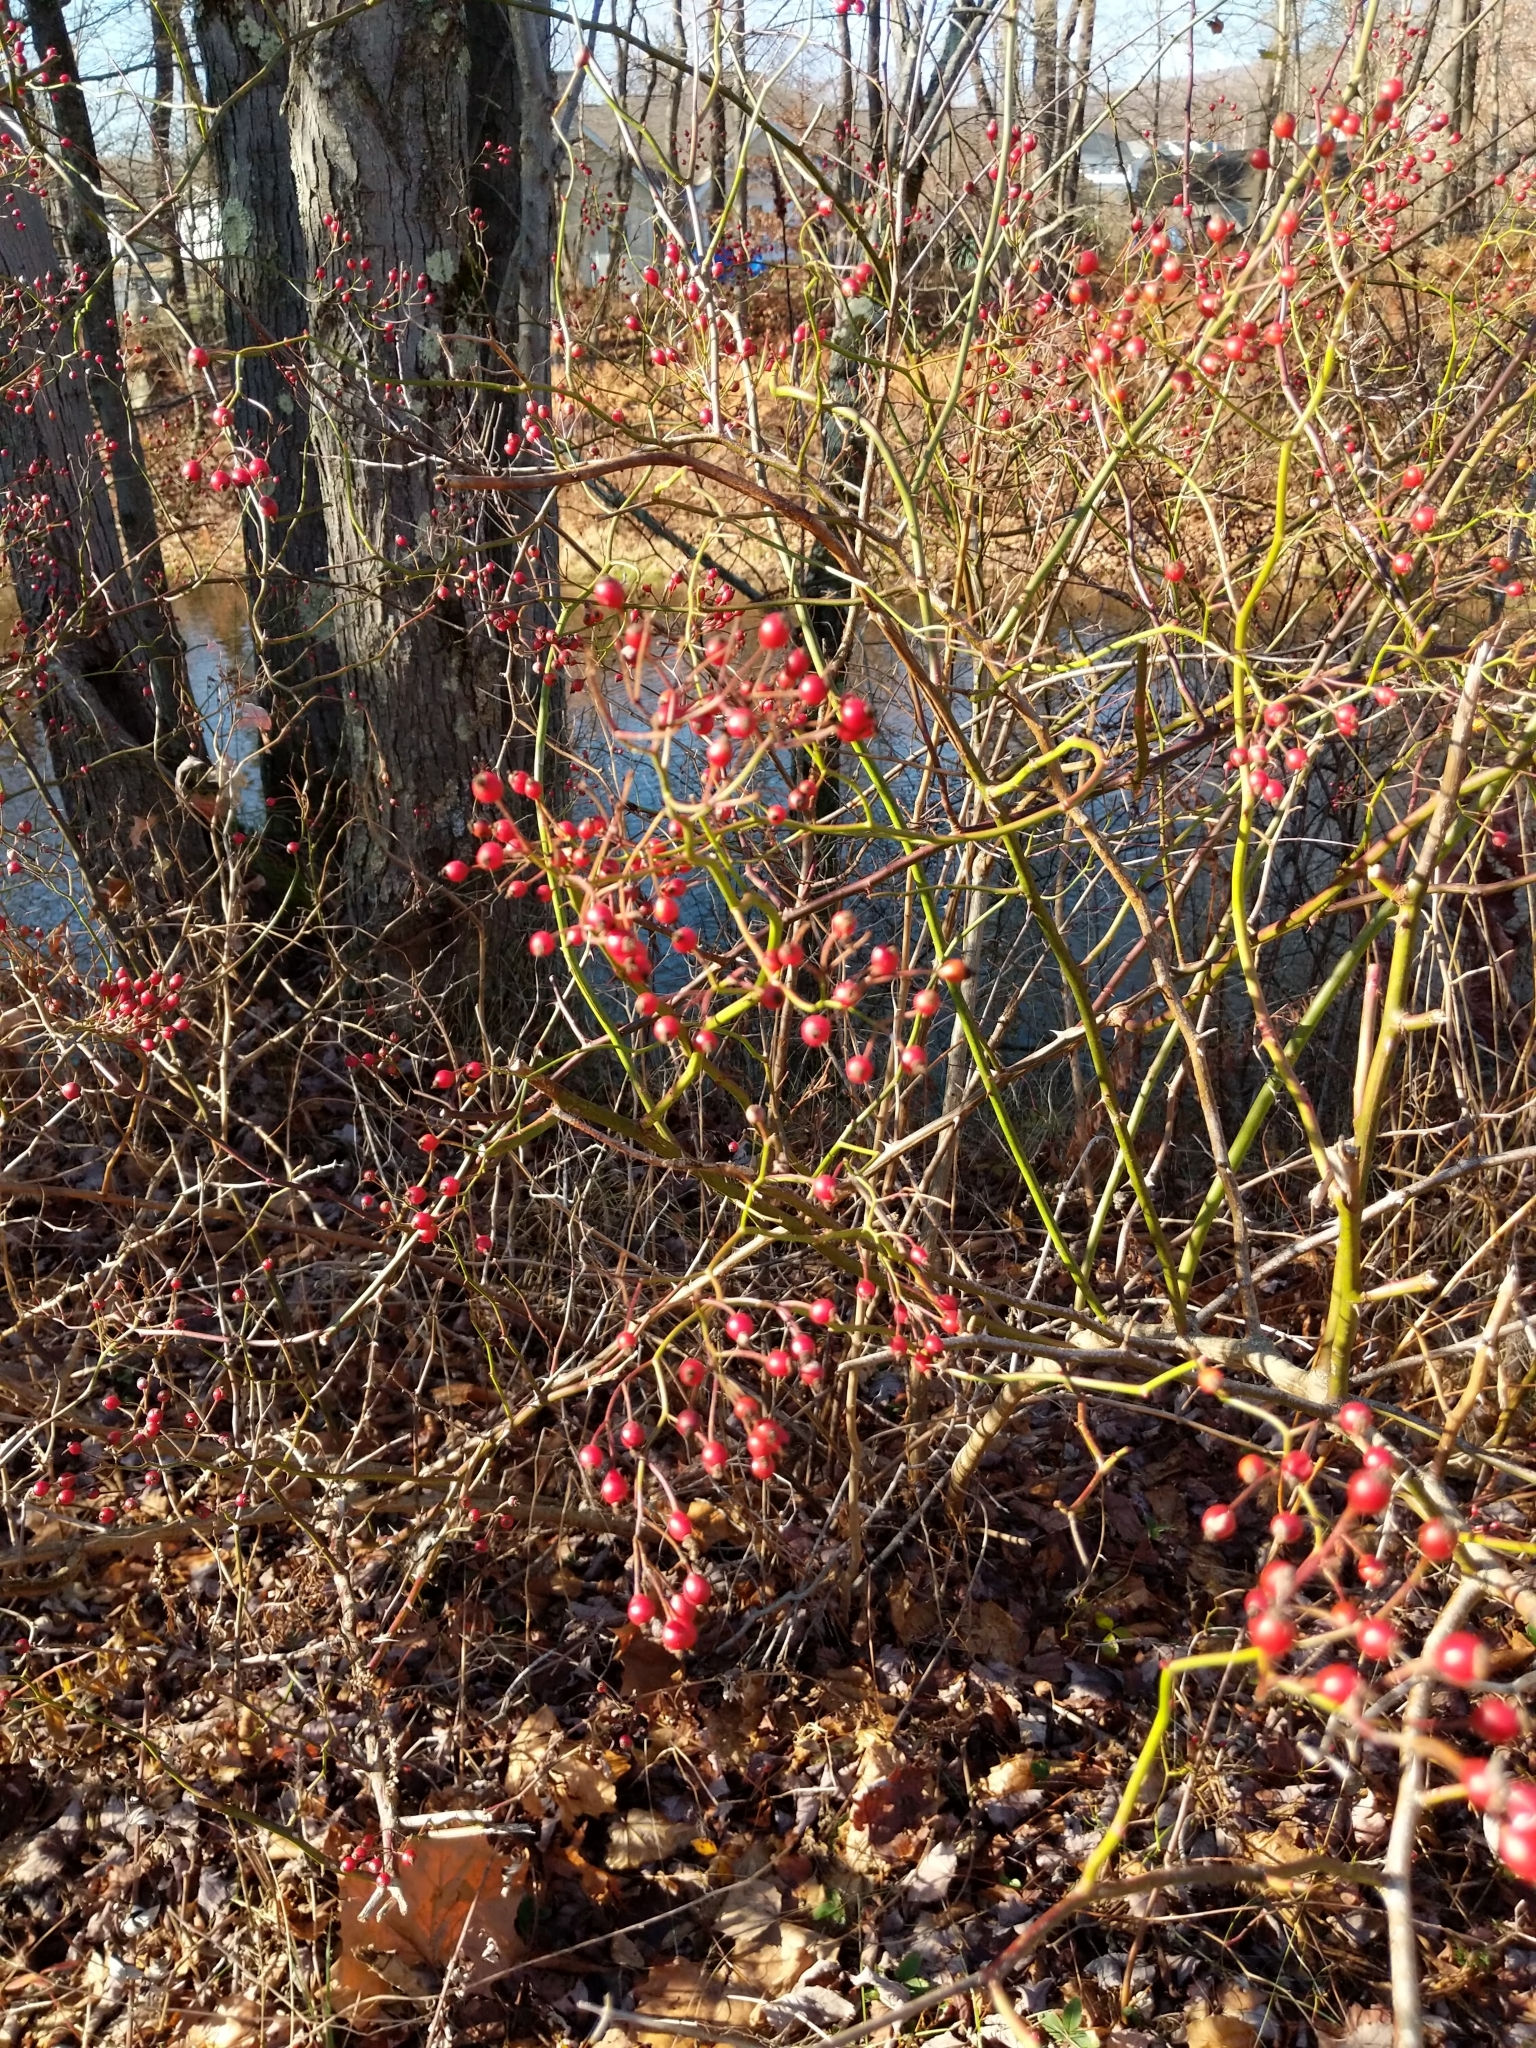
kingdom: Plantae
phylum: Tracheophyta
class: Magnoliopsida
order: Rosales
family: Rosaceae
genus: Rosa
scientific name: Rosa multiflora
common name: Multiflora rose
